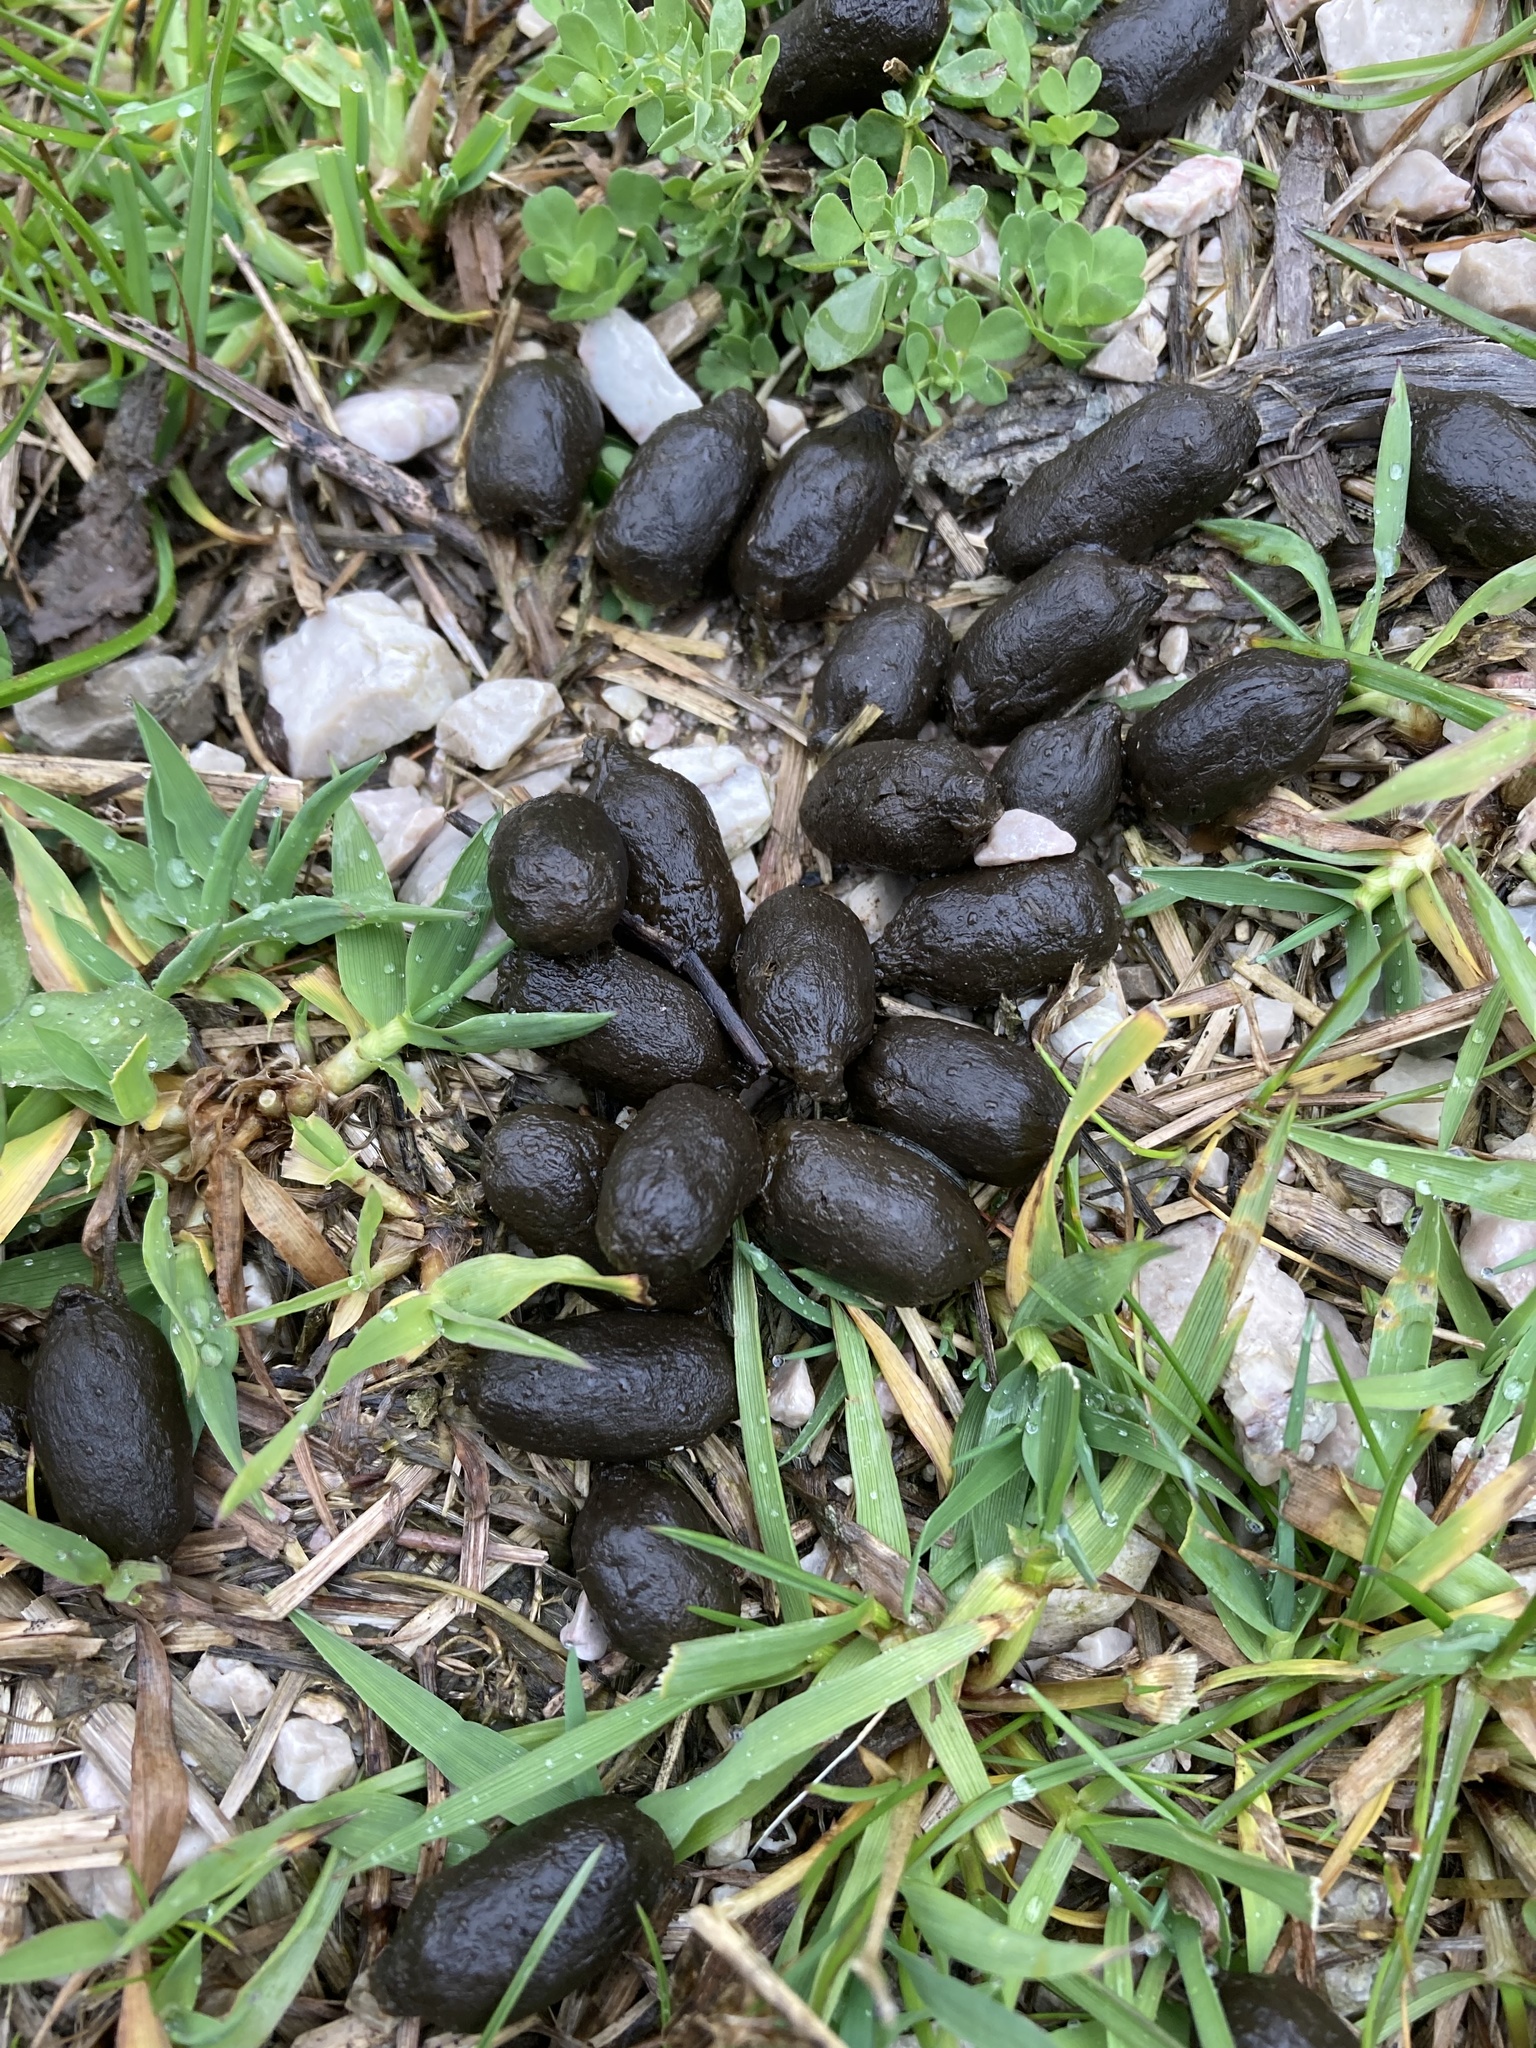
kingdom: Animalia
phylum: Chordata
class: Mammalia
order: Artiodactyla
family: Cervidae
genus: Capreolus
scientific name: Capreolus capreolus
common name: Western roe deer
